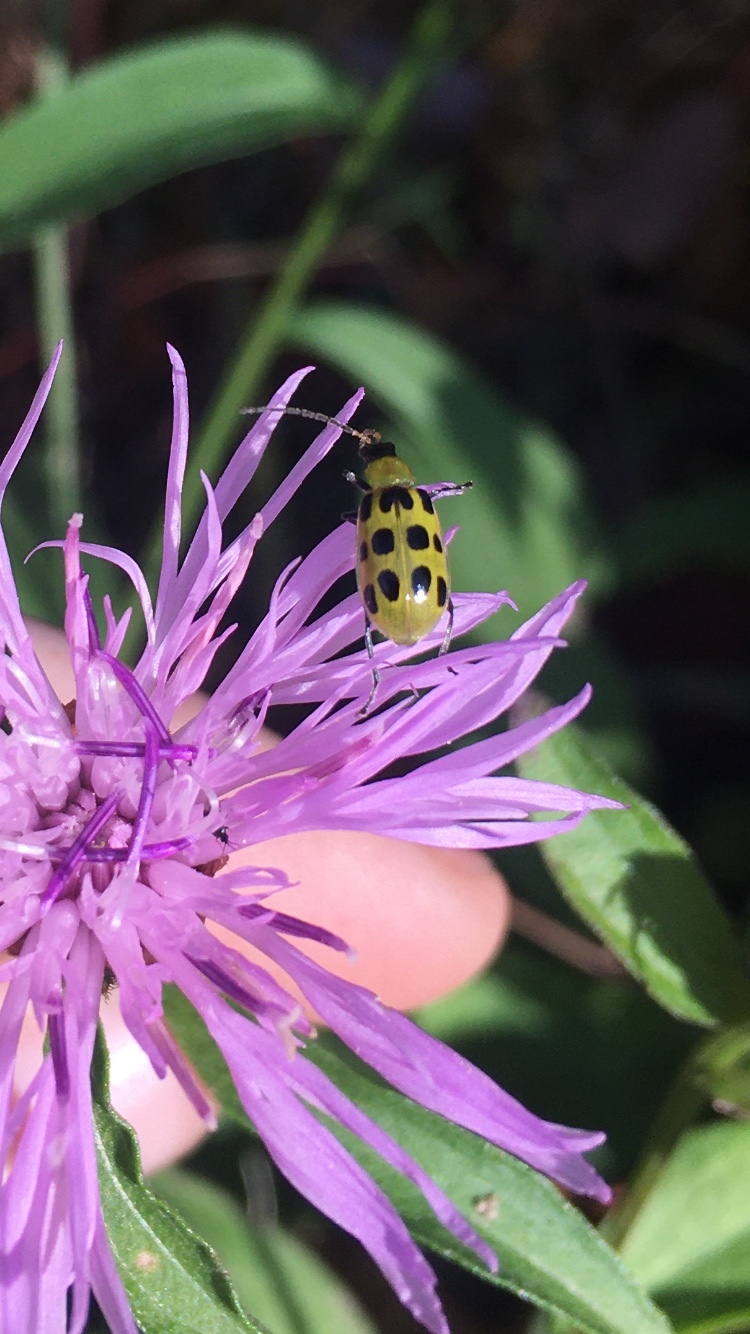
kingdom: Animalia
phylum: Arthropoda
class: Insecta
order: Coleoptera
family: Chrysomelidae
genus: Diabrotica
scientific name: Diabrotica undecimpunctata
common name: Spotted cucumber beetle
